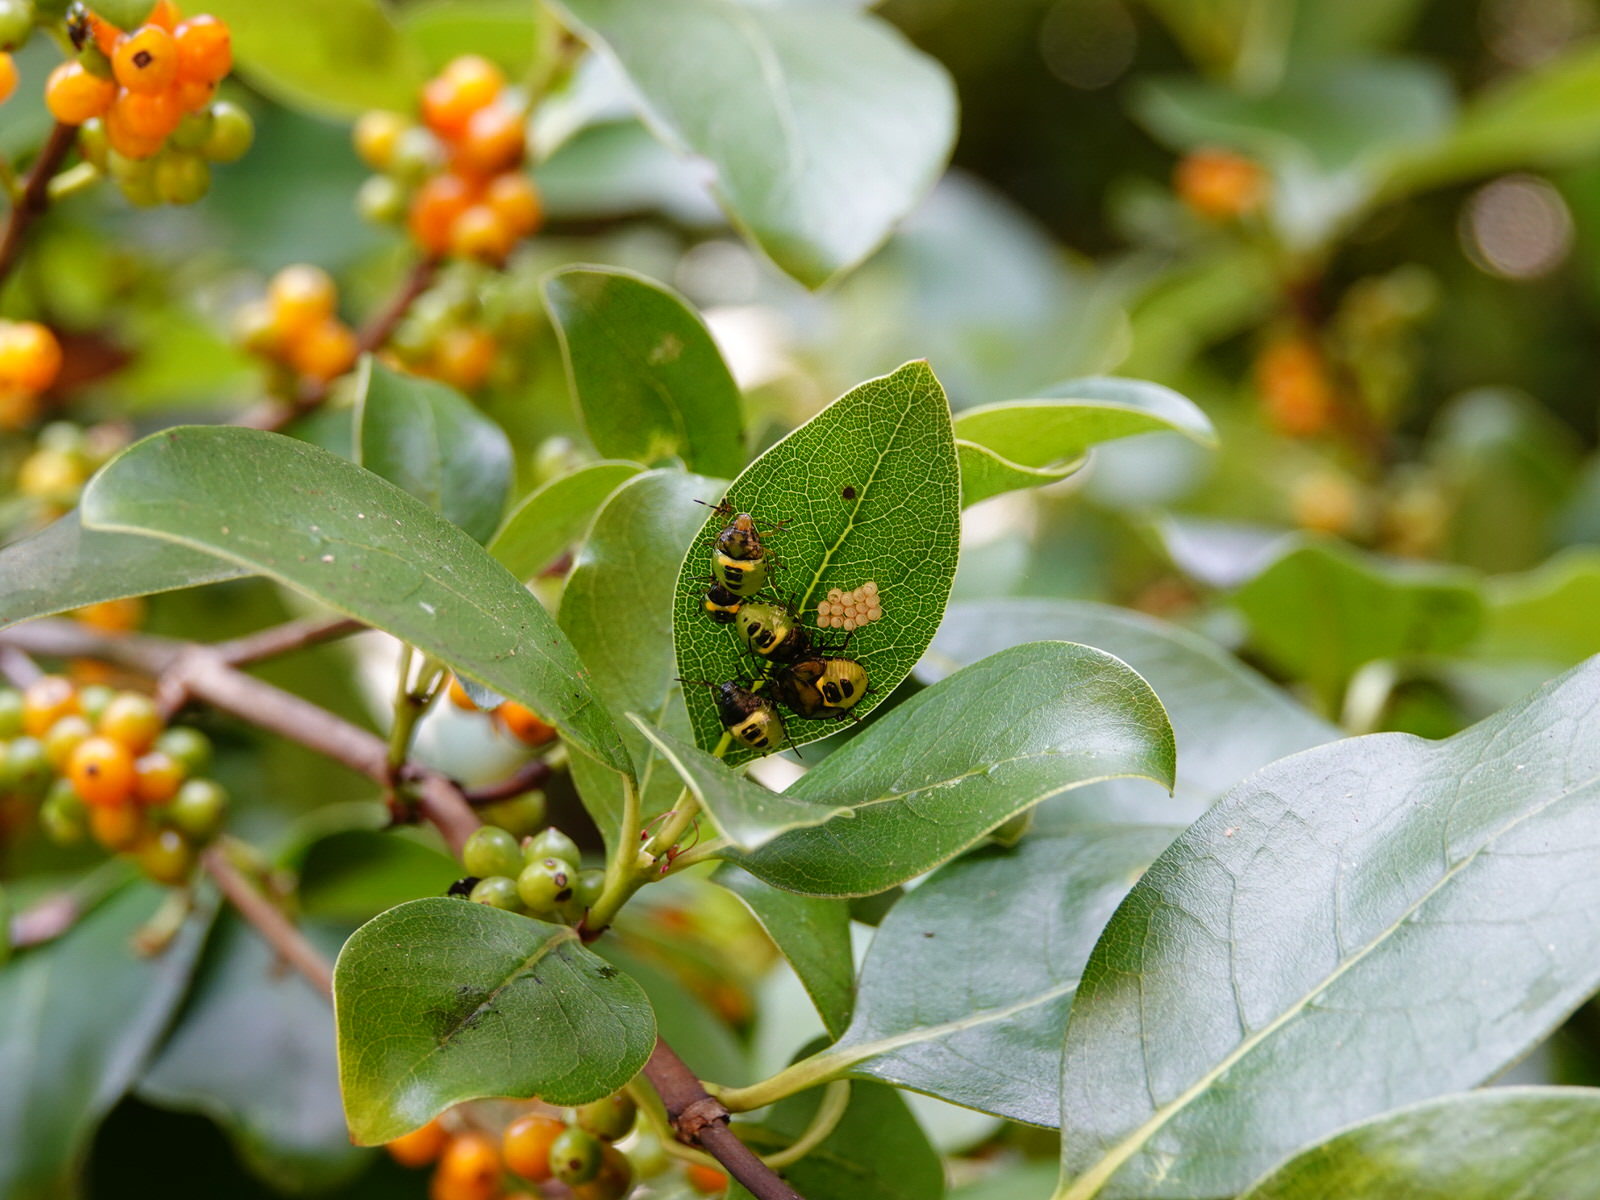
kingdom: Animalia
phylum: Arthropoda
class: Insecta
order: Hemiptera
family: Pentatomidae
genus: Glaucias
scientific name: Glaucias amyota
